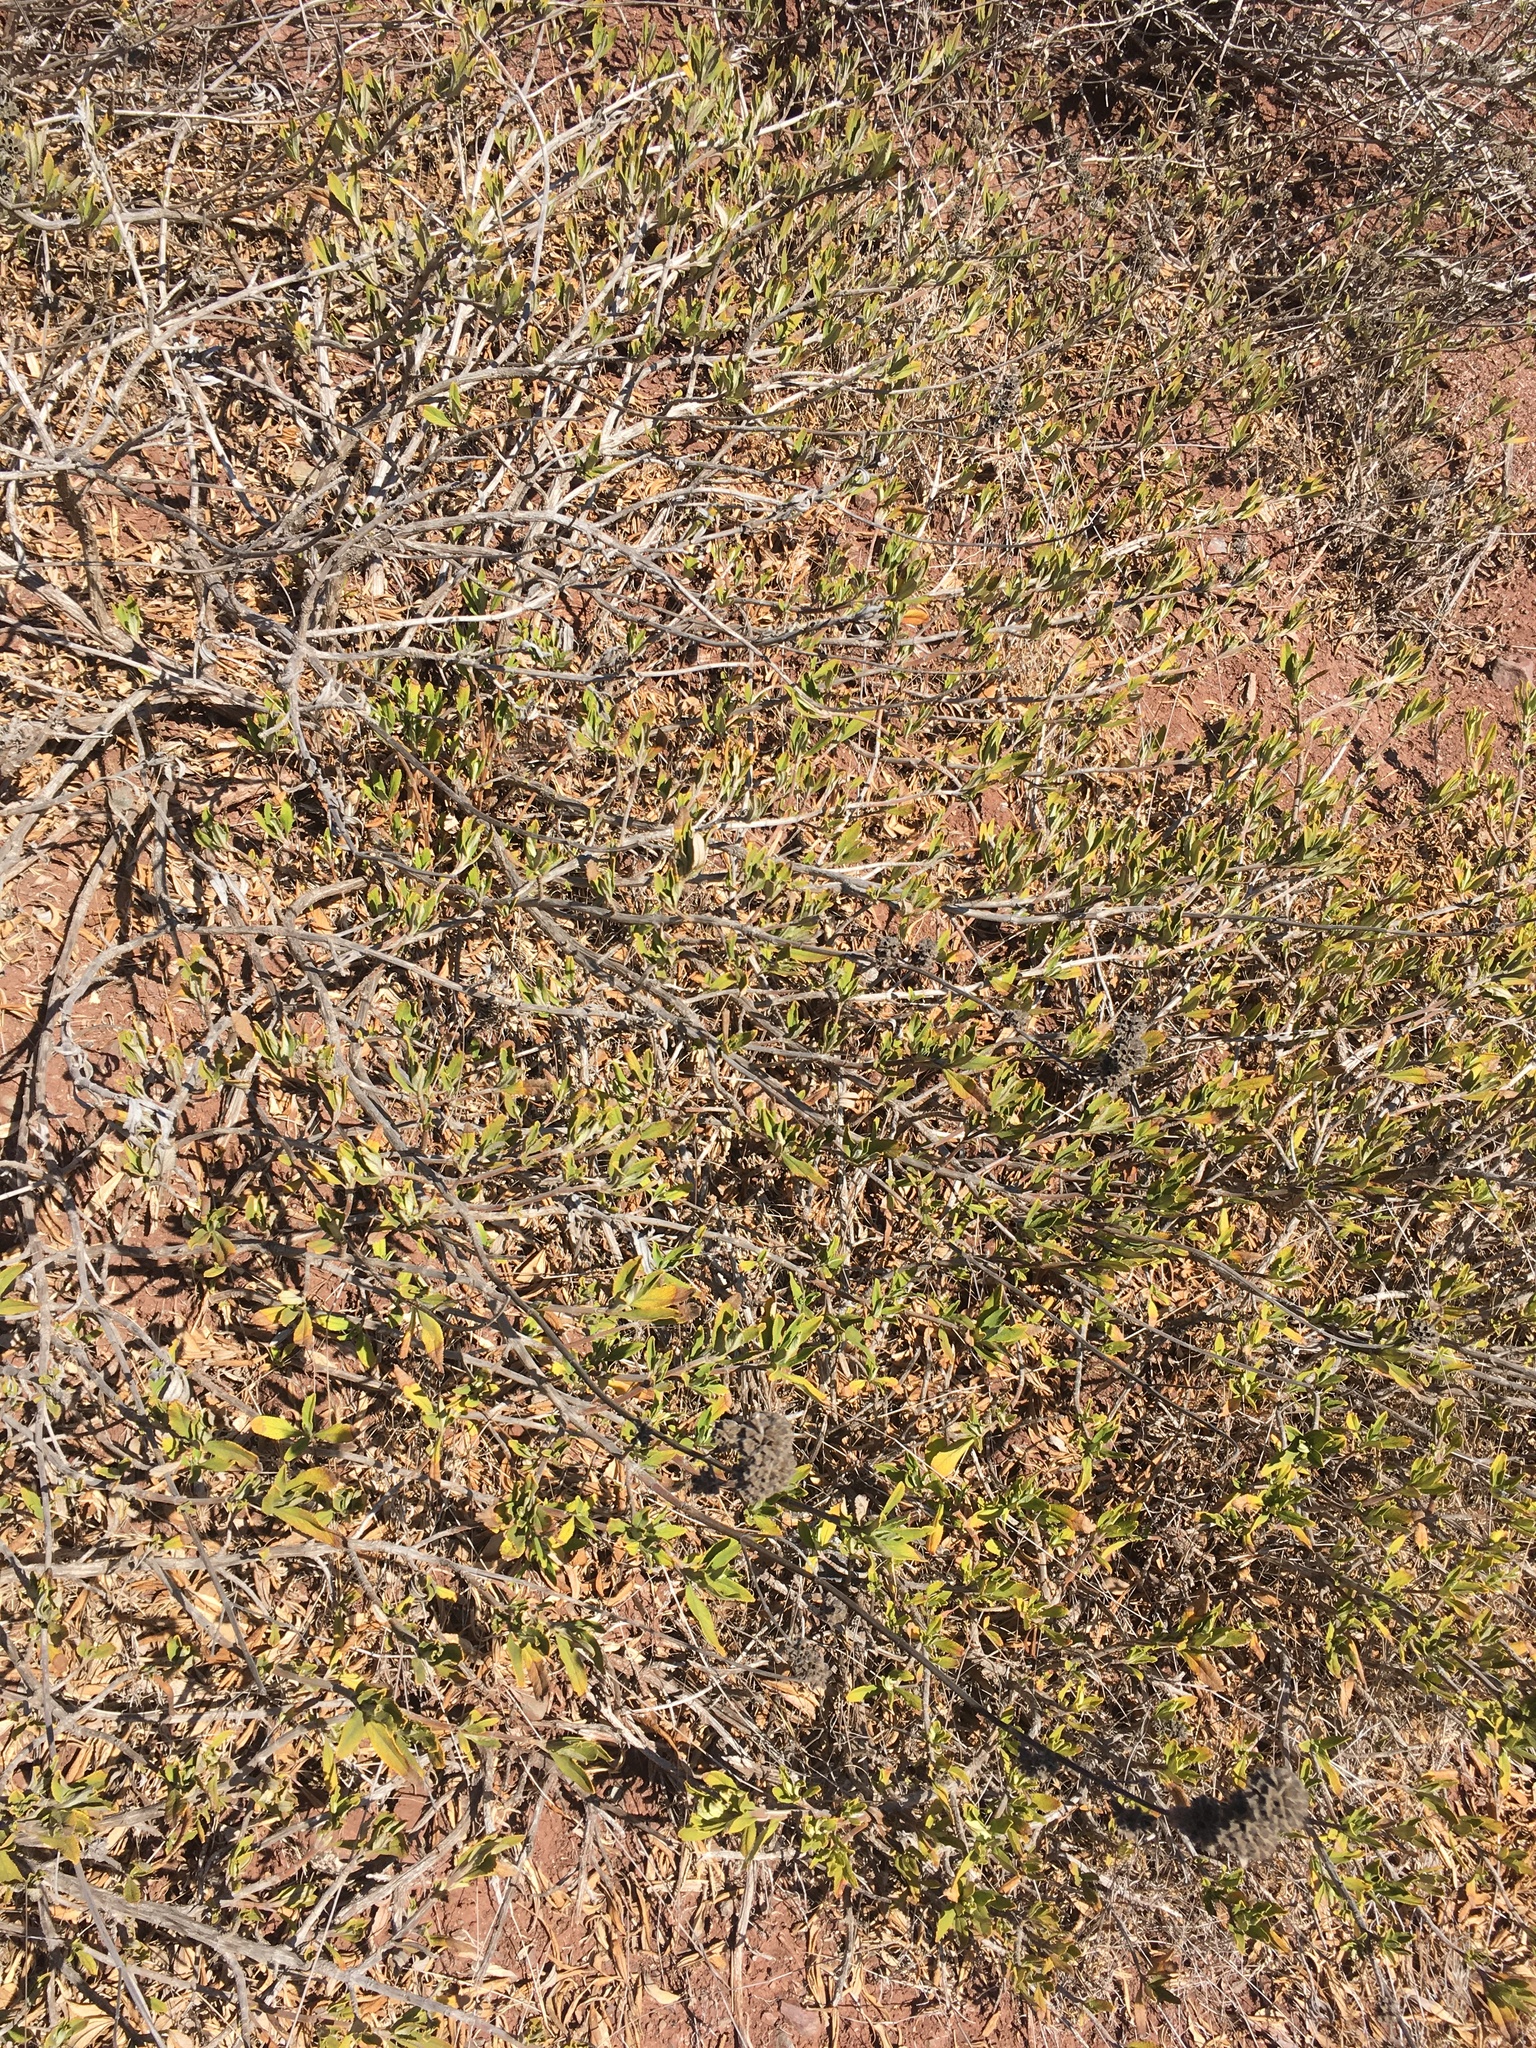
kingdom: Plantae
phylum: Tracheophyta
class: Magnoliopsida
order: Lamiales
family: Lamiaceae
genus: Salvia
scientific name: Salvia mellifera
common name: Black sage
